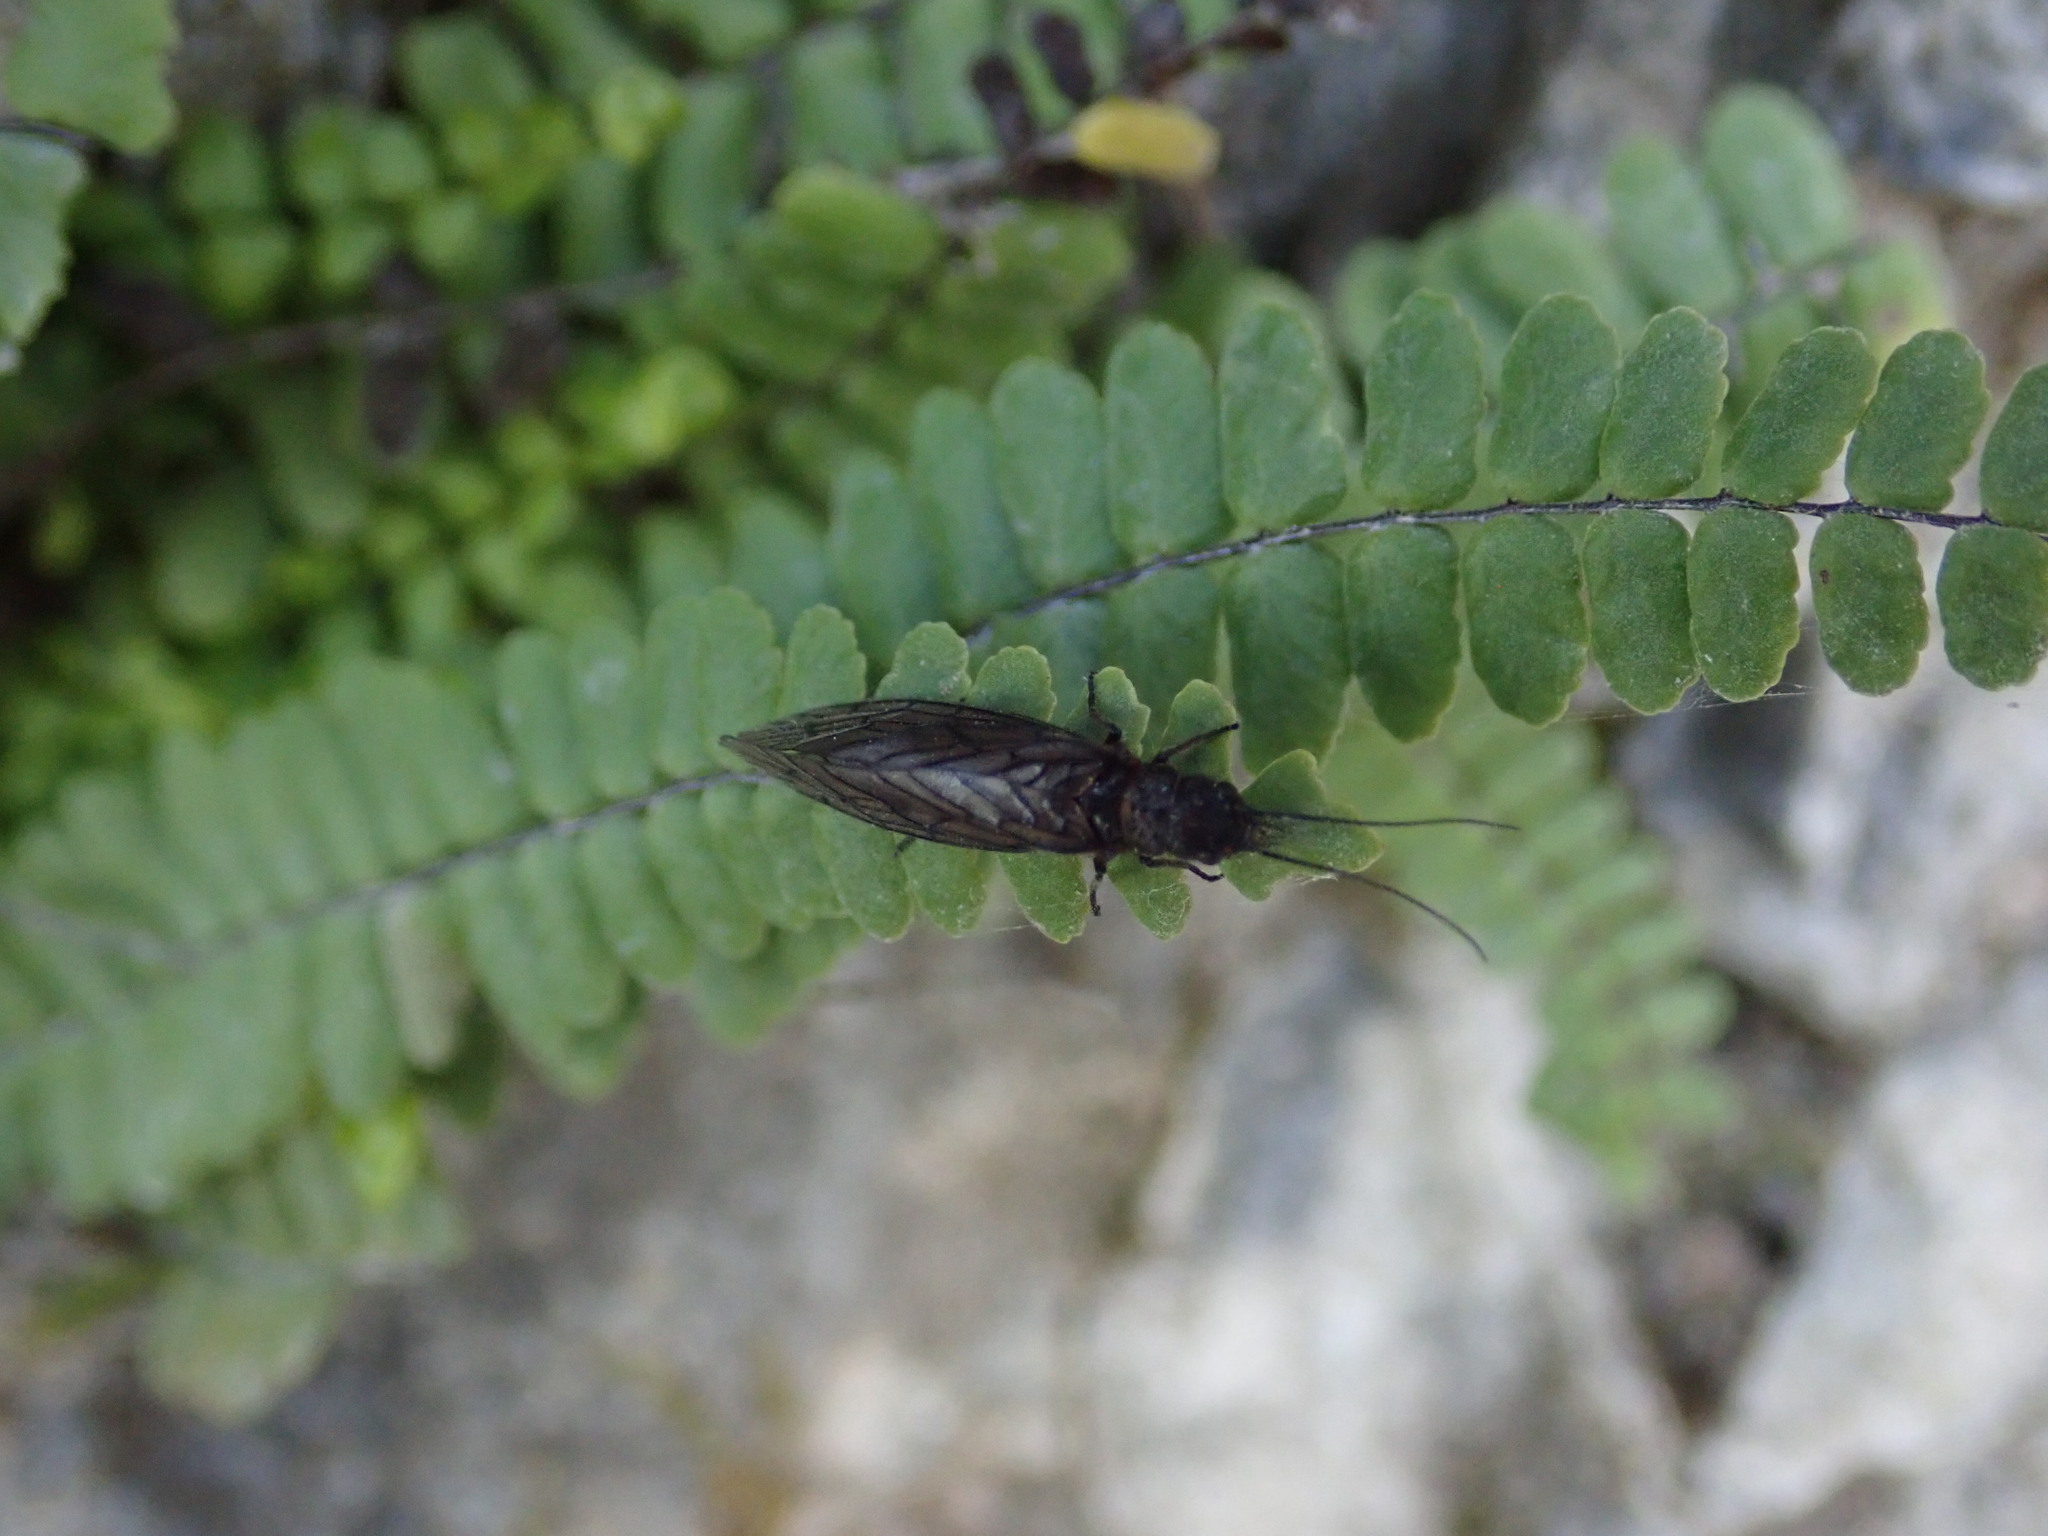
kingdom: Animalia
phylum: Arthropoda
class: Insecta
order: Megaloptera
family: Sialidae
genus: Sialis
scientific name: Sialis
